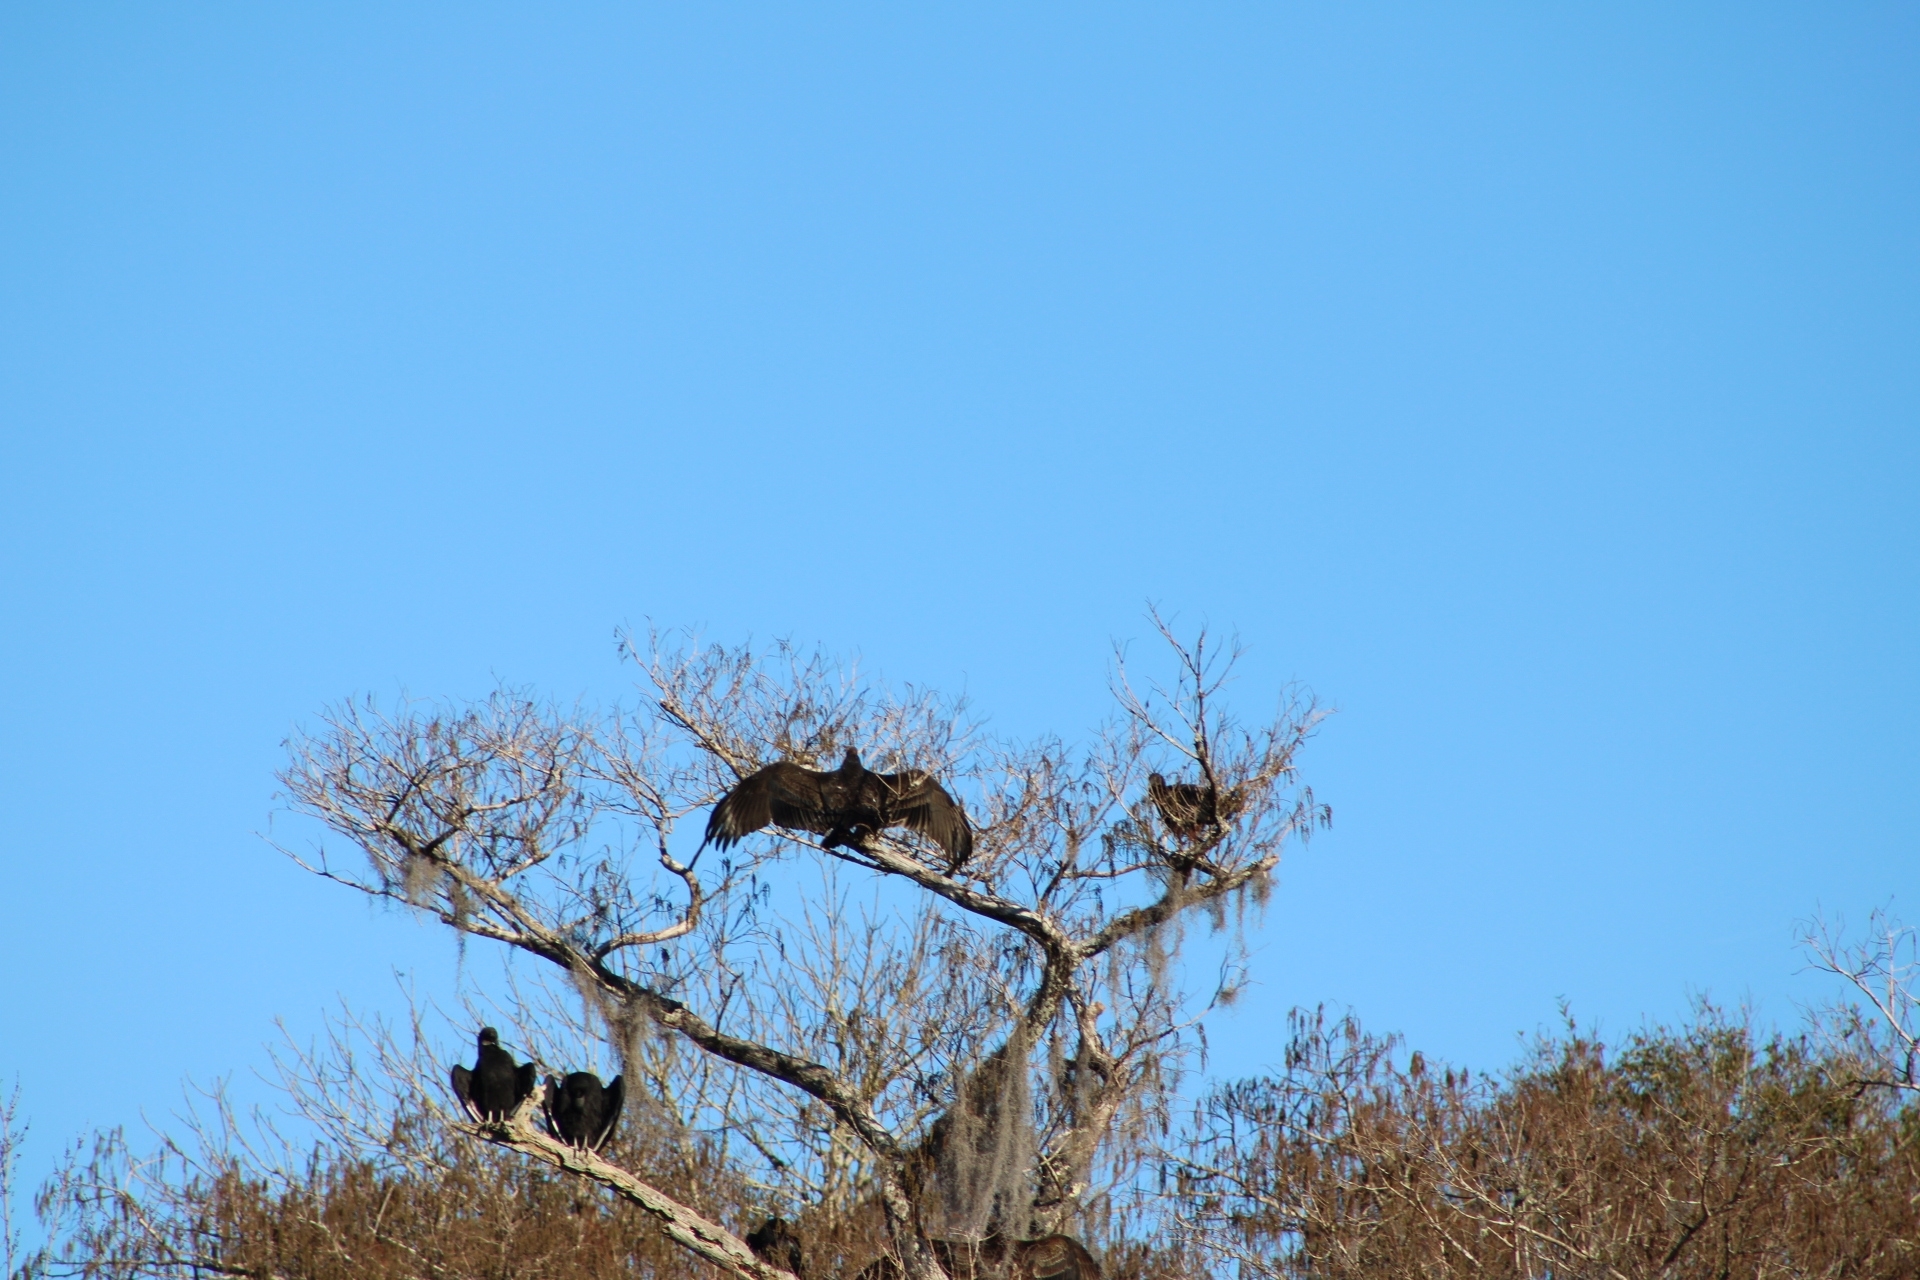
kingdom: Animalia
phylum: Chordata
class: Aves
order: Accipitriformes
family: Cathartidae
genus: Cathartes
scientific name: Cathartes aura
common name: Turkey vulture
